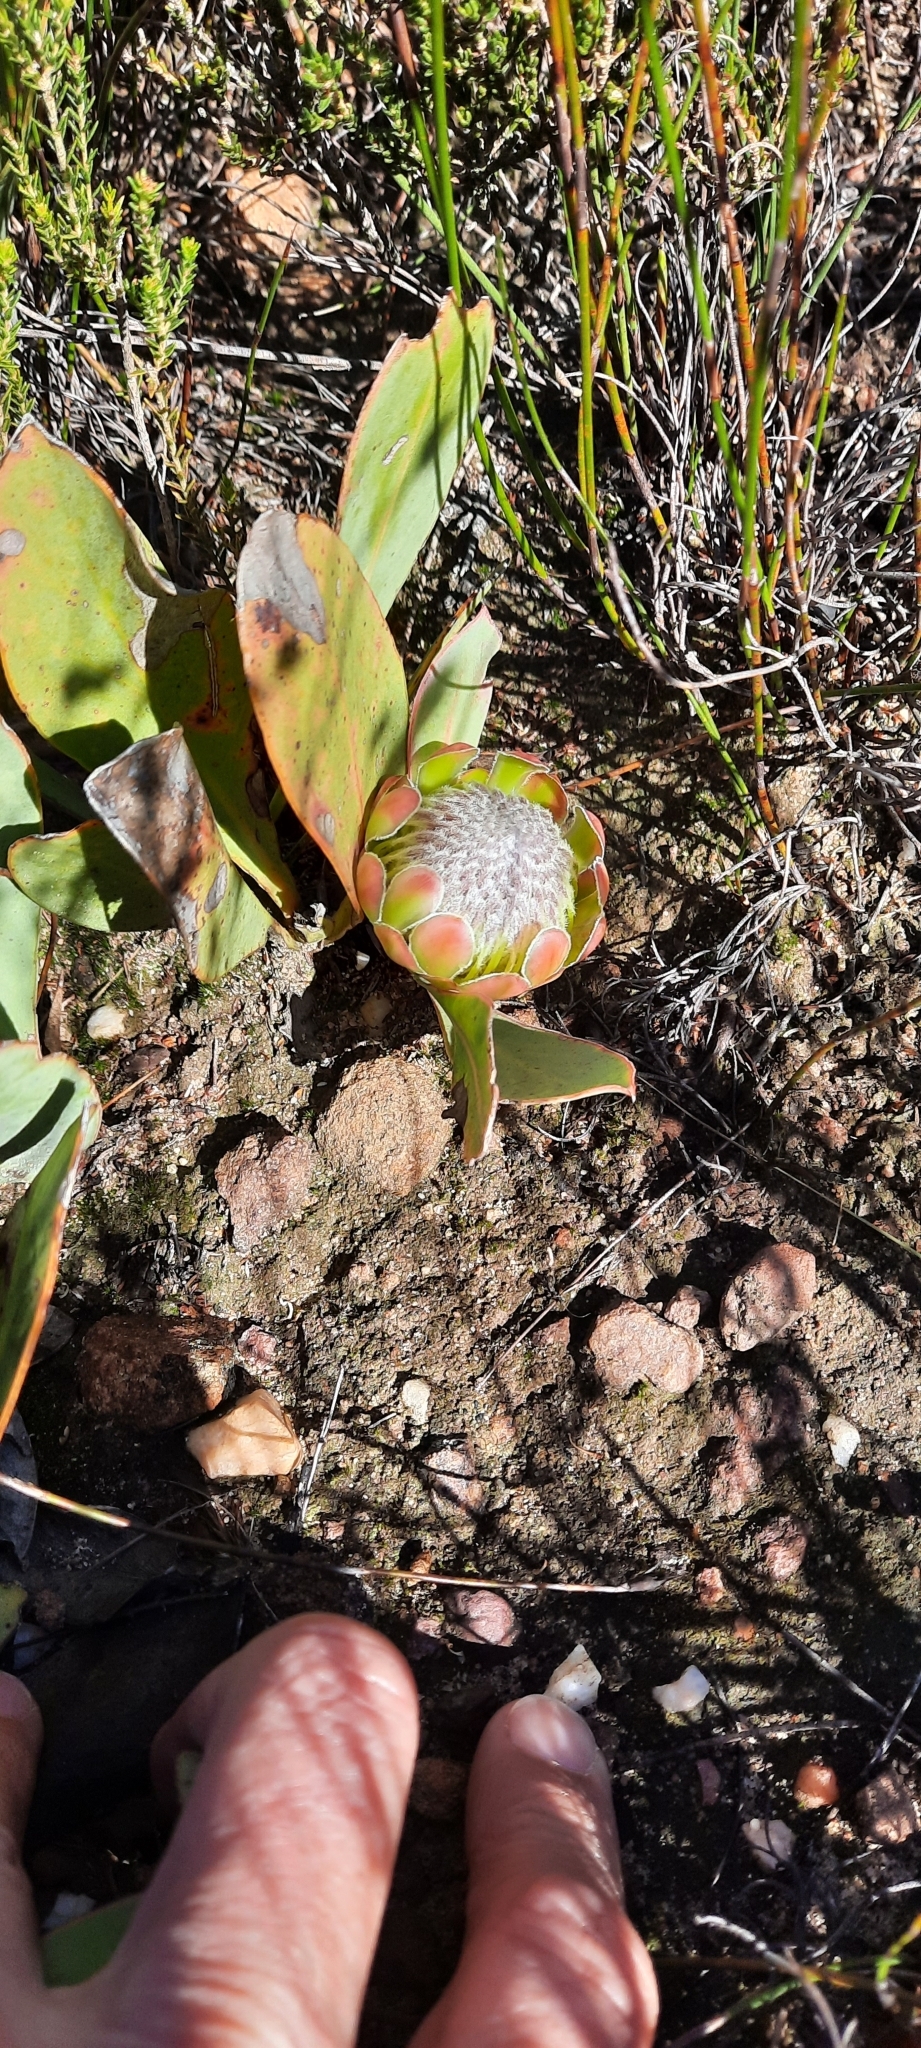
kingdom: Plantae
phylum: Tracheophyta
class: Magnoliopsida
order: Proteales
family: Proteaceae
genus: Protea
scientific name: Protea acaulos
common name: Common ground sugarbush
